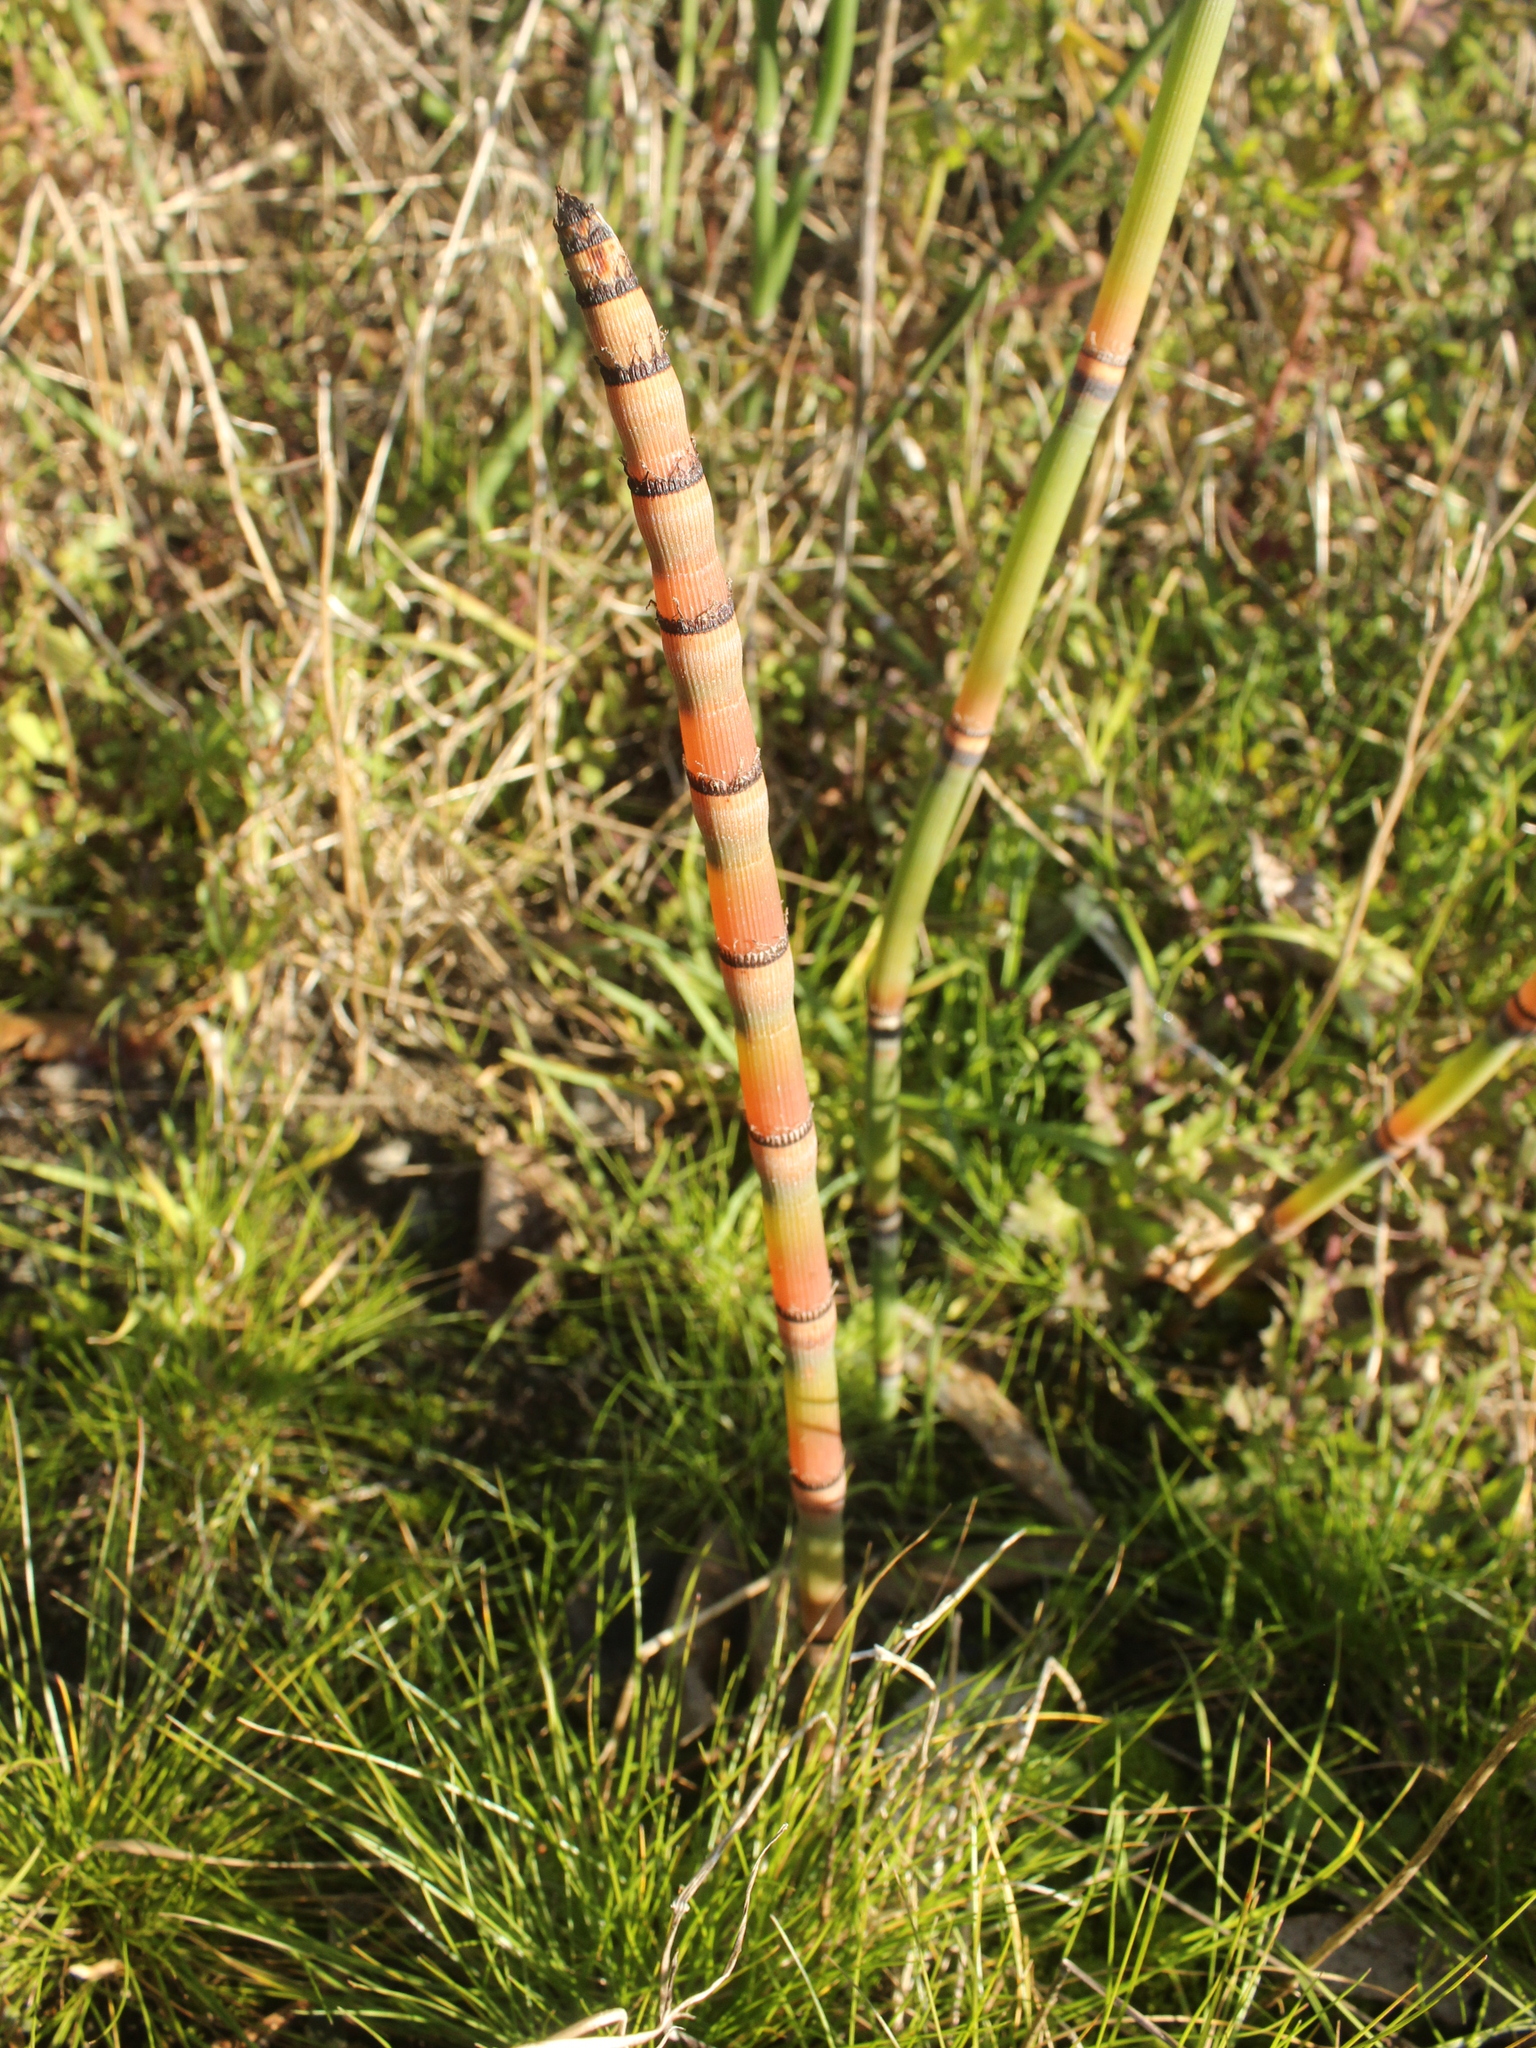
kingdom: Plantae
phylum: Tracheophyta
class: Polypodiopsida
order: Equisetales
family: Equisetaceae
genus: Equisetum
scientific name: Equisetum hyemale
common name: Rough horsetail
